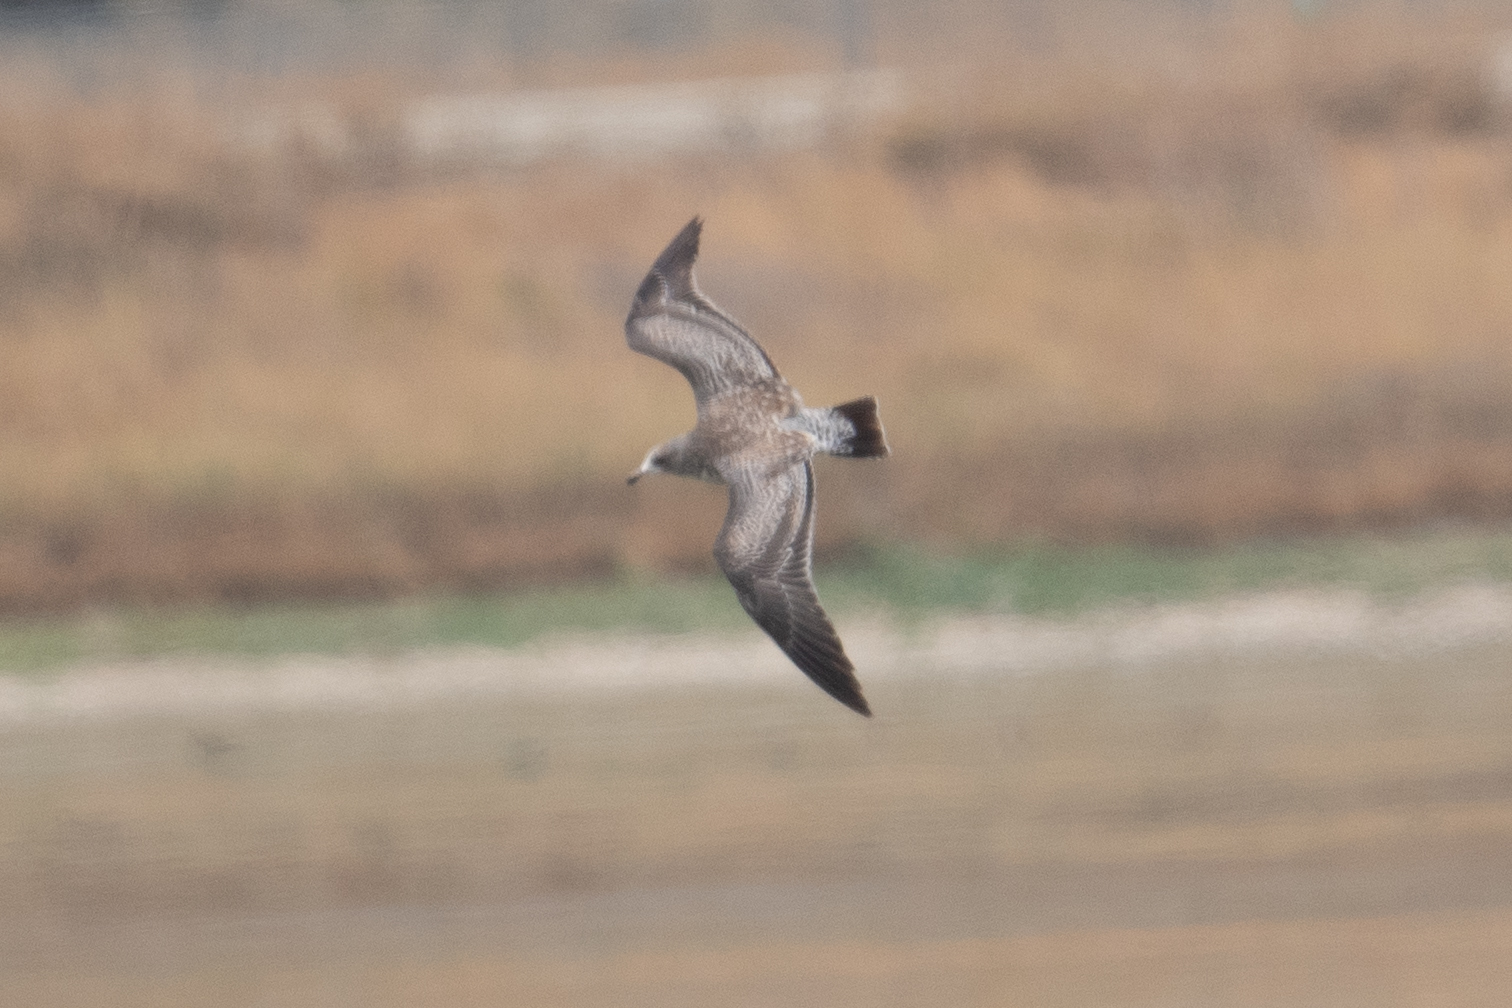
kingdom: Animalia
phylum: Chordata
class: Aves
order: Charadriiformes
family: Laridae
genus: Larus
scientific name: Larus californicus
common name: California gull
